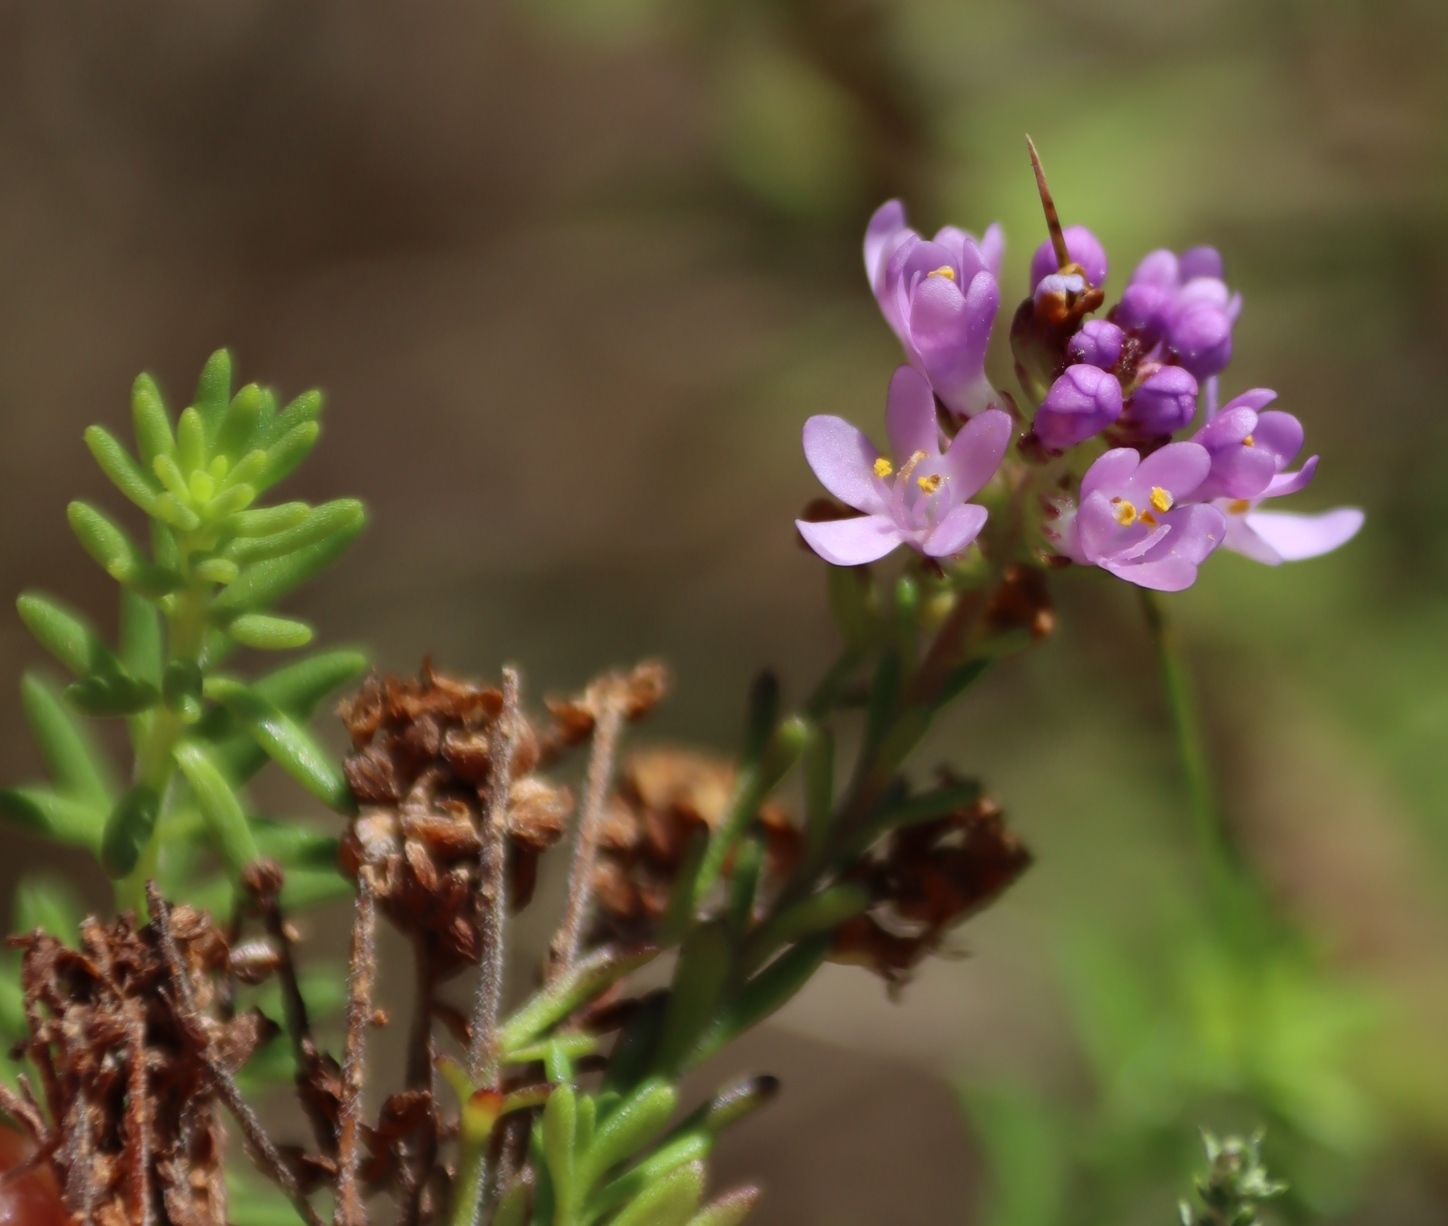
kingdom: Plantae
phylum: Tracheophyta
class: Magnoliopsida
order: Lamiales
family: Scrophulariaceae
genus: Selago
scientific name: Selago villicaulis
